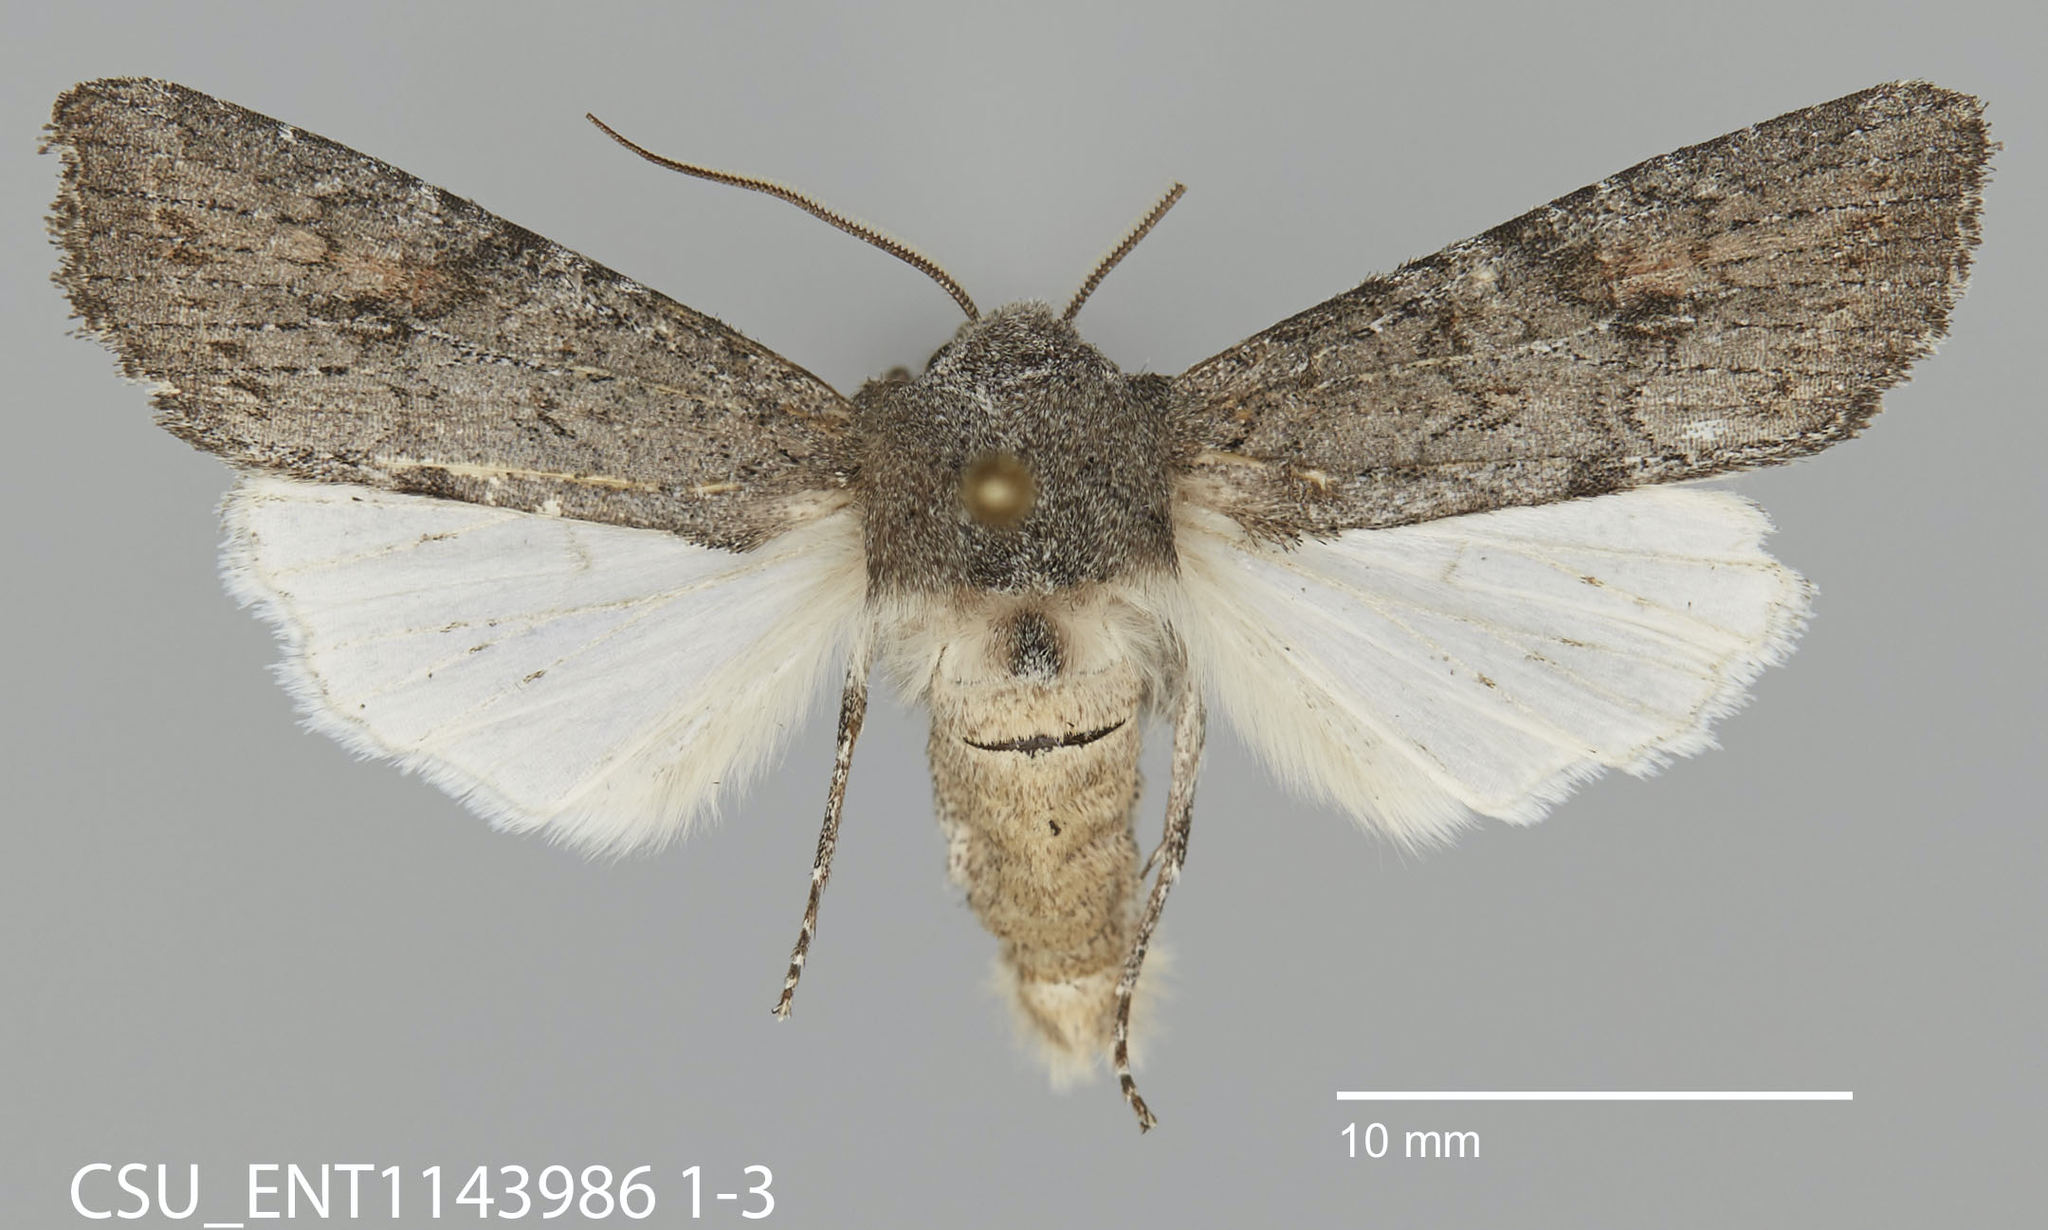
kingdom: Animalia
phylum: Arthropoda
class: Insecta
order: Lepidoptera
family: Noctuidae
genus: Egira
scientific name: Egira curialis
